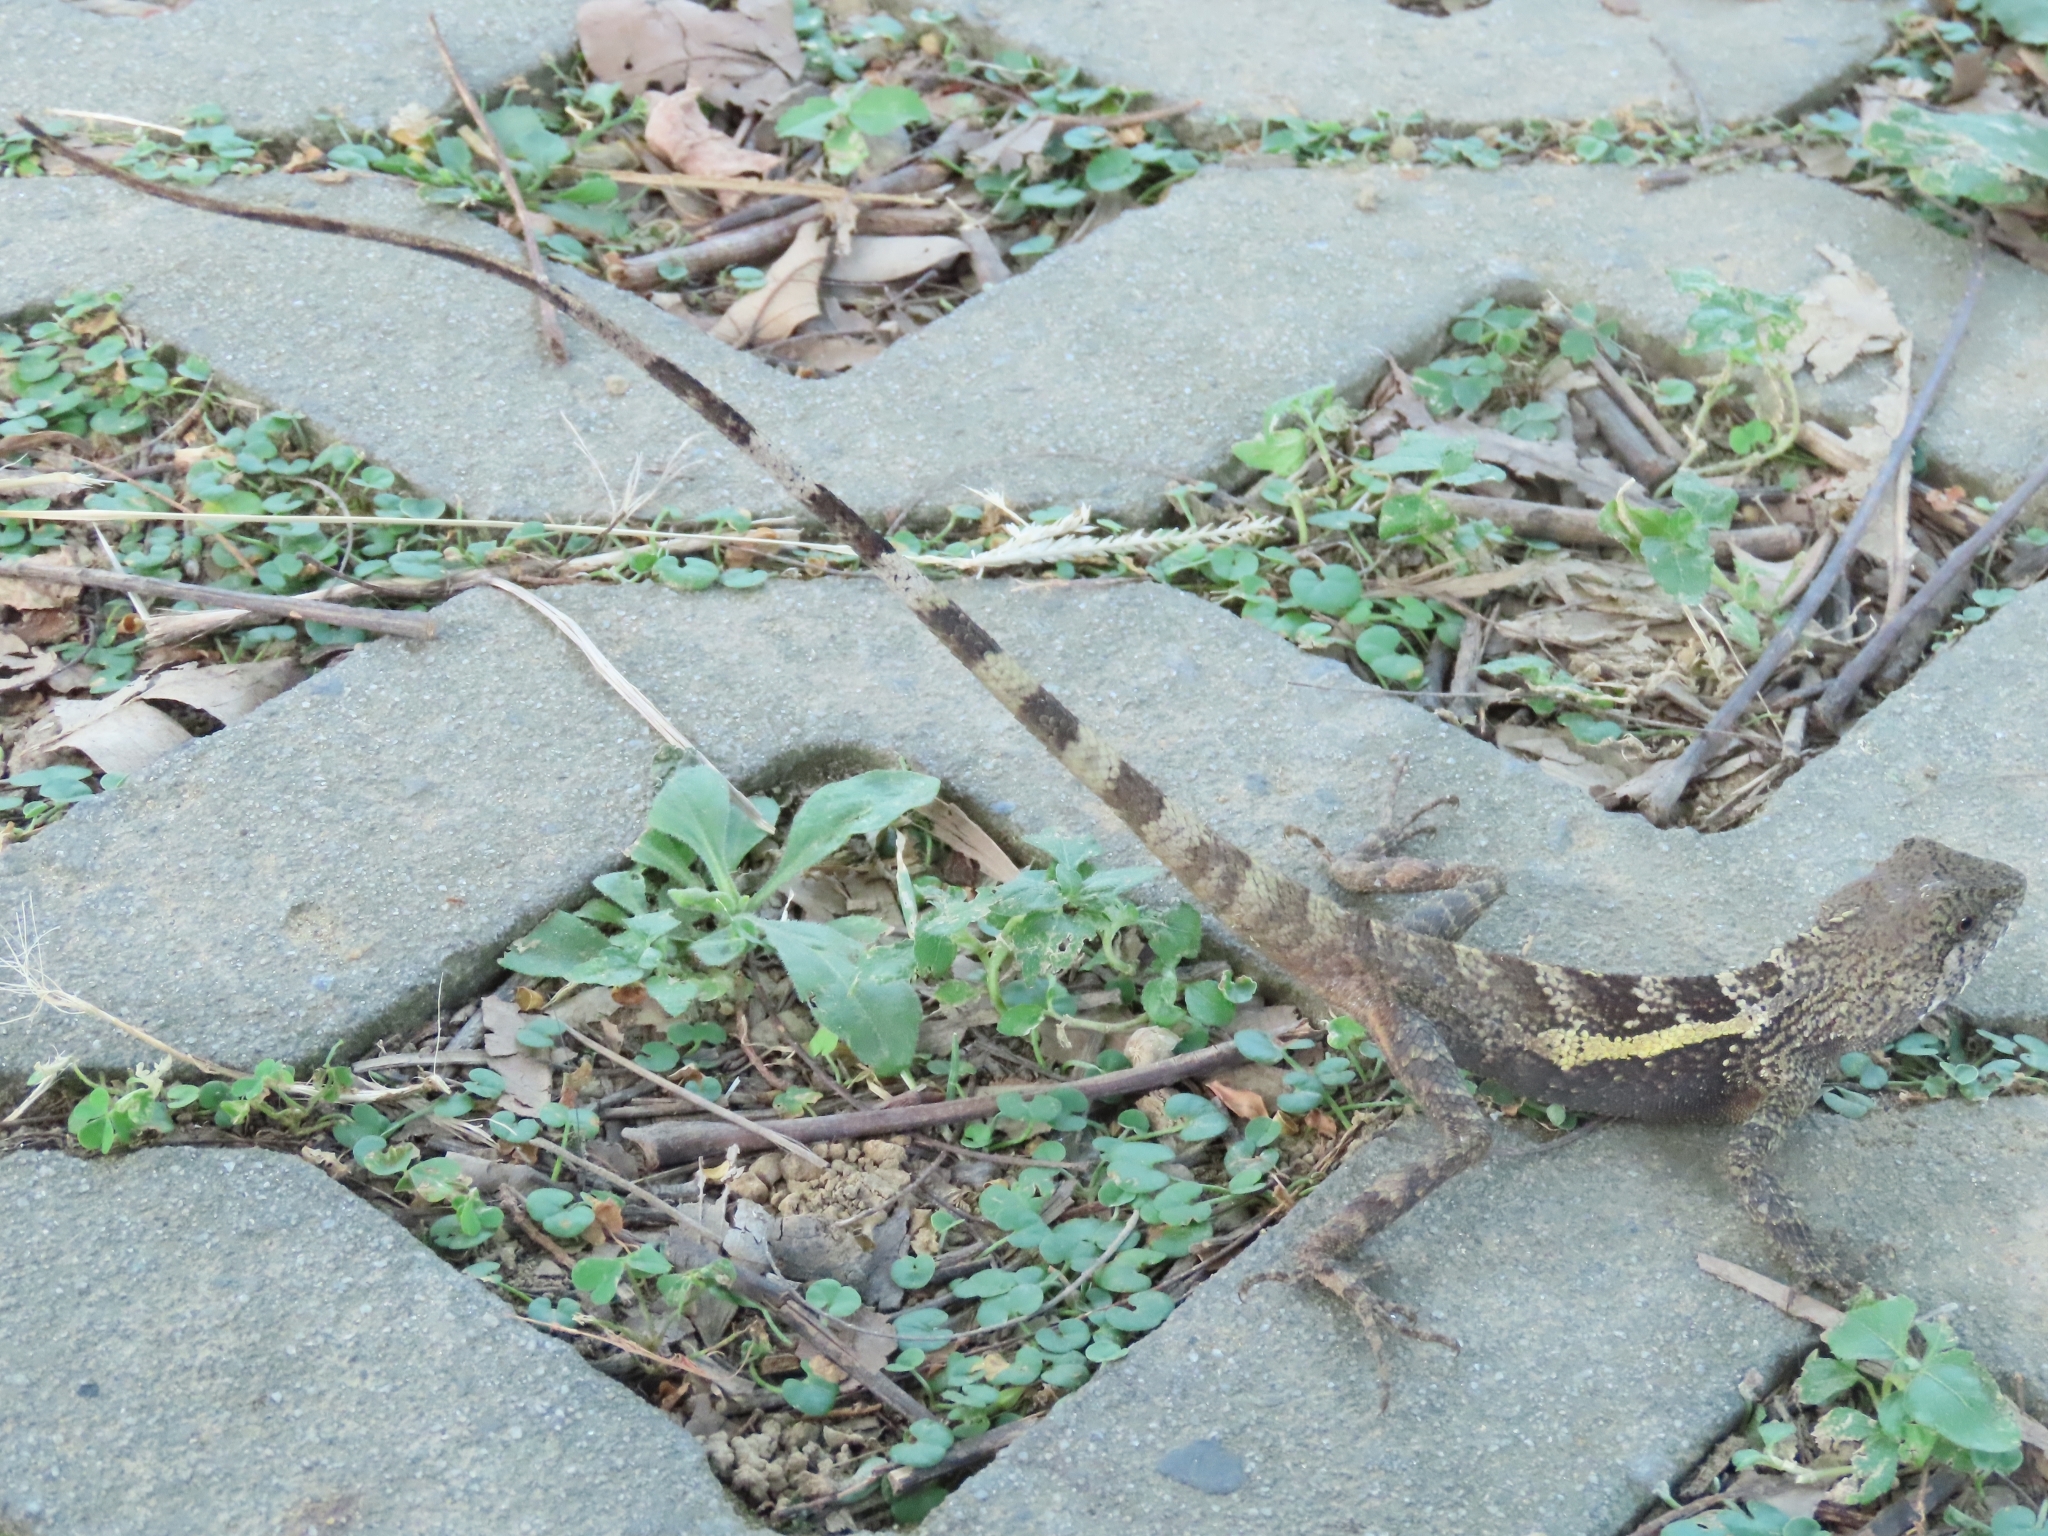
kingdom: Animalia
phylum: Chordata
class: Squamata
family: Agamidae
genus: Diploderma
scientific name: Diploderma swinhonis
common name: Taiwan japalure
